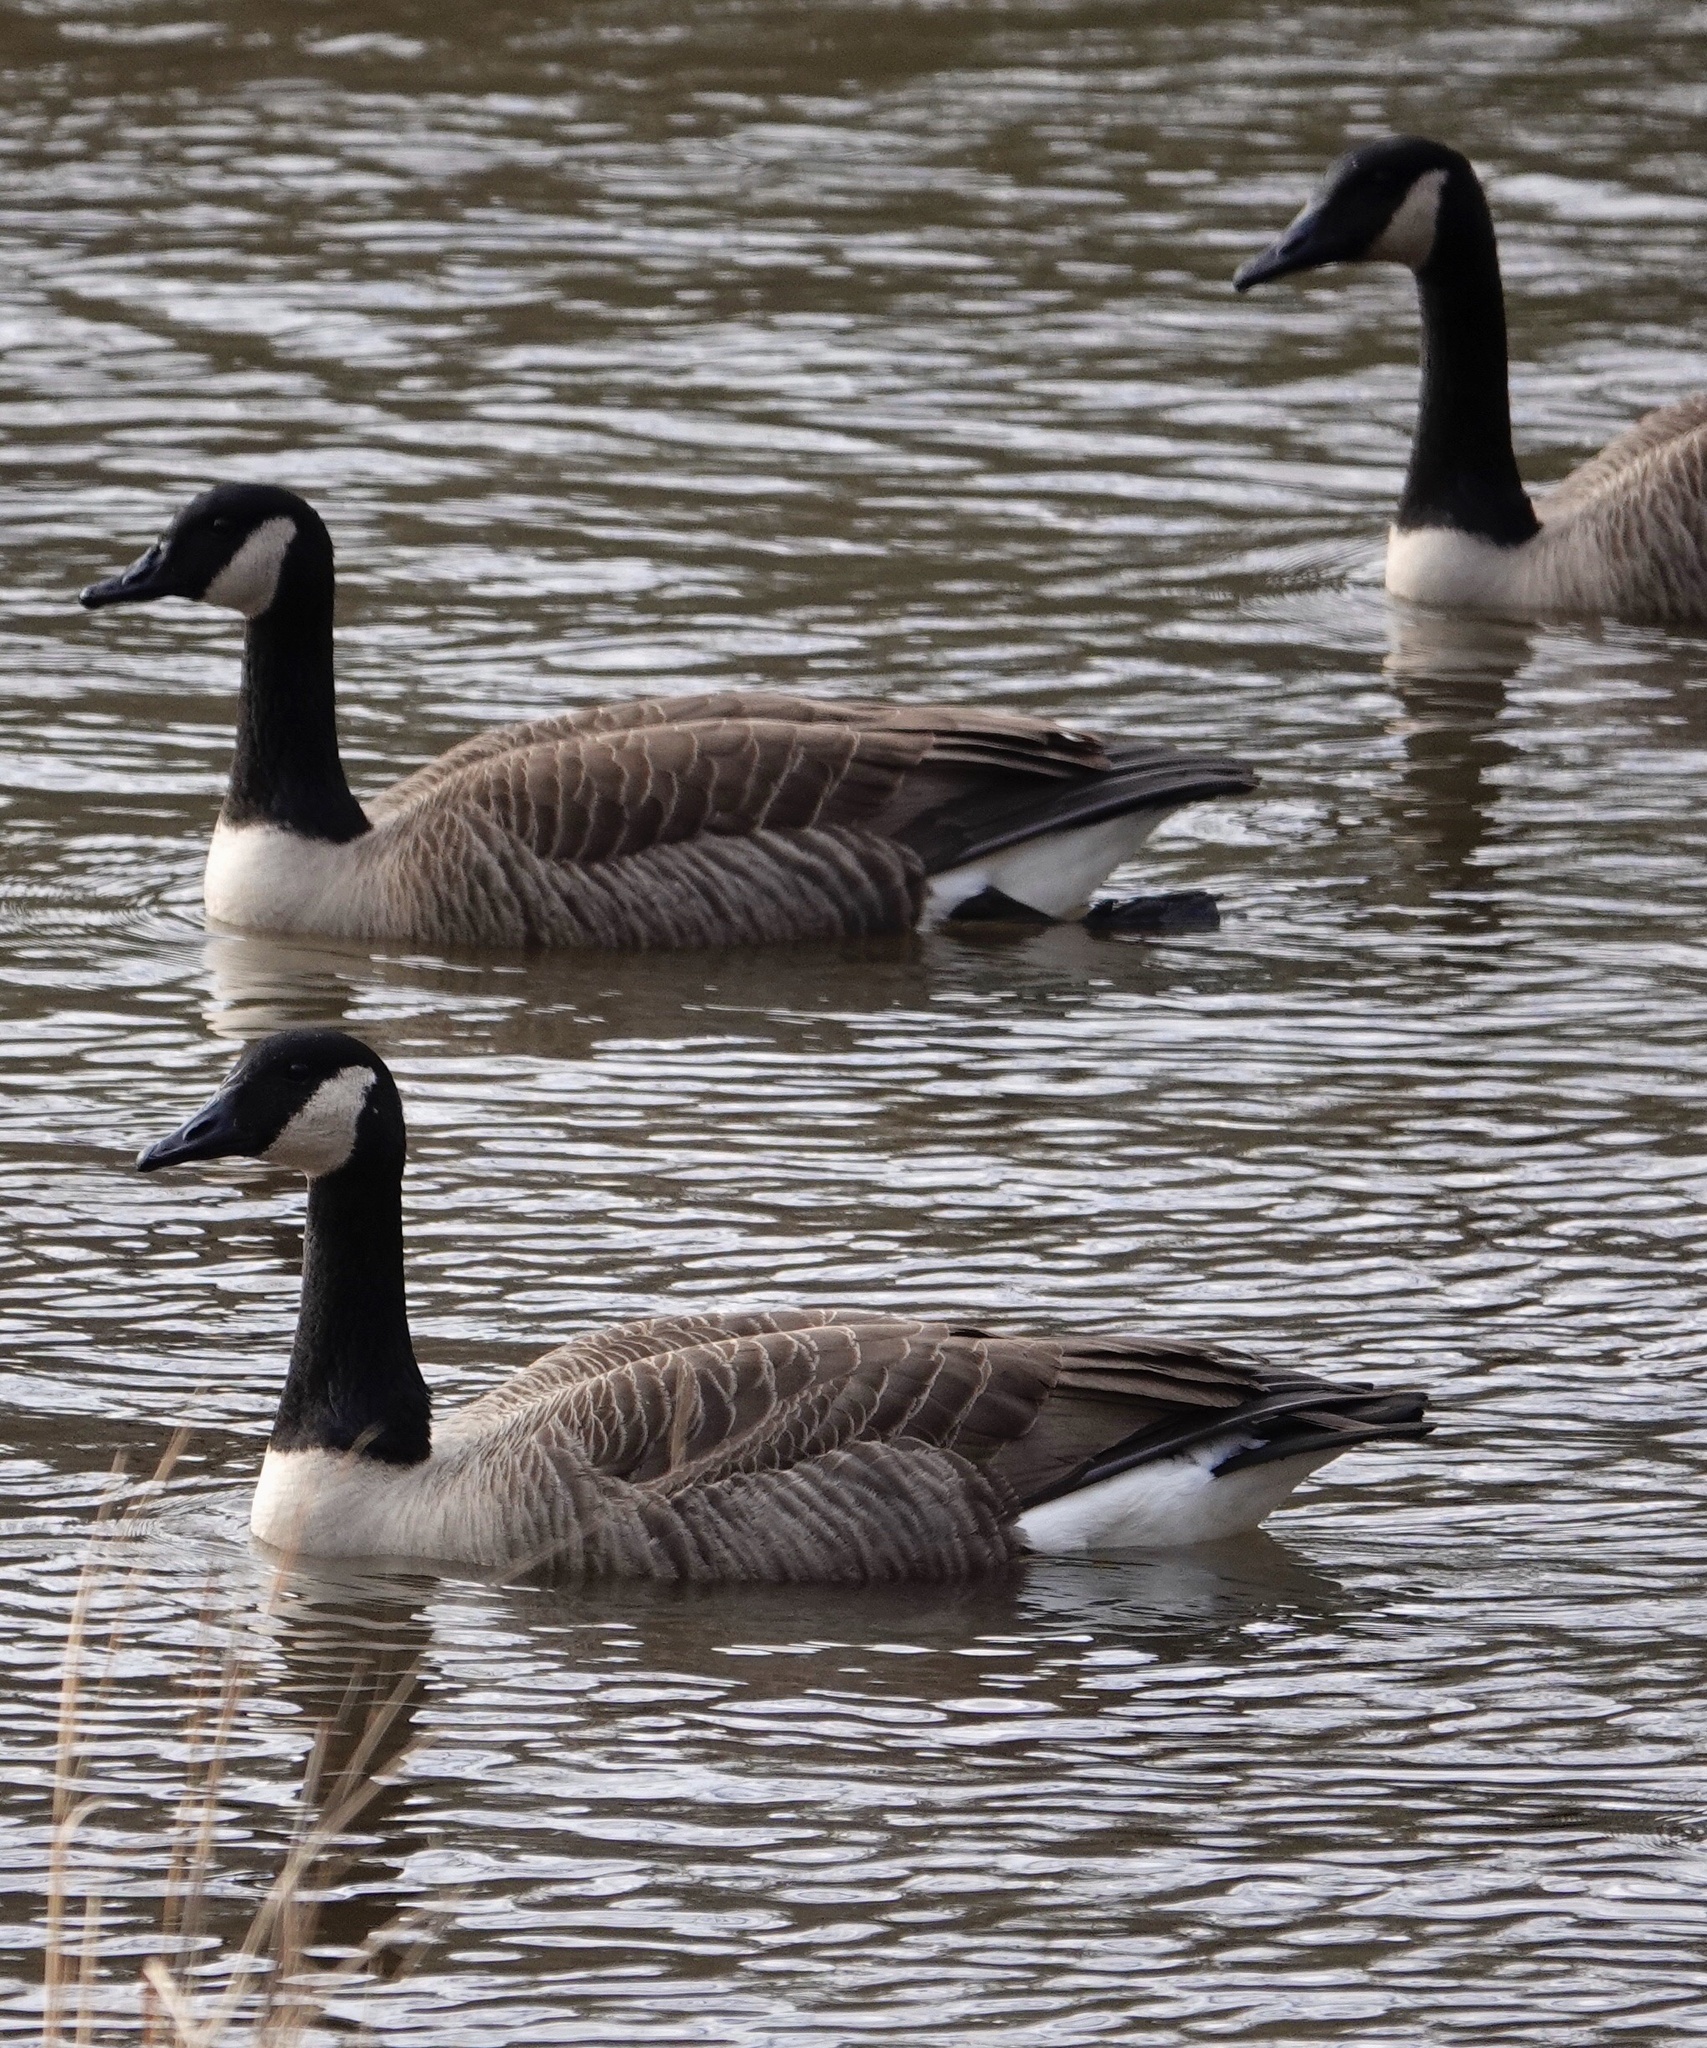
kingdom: Animalia
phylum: Chordata
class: Aves
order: Anseriformes
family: Anatidae
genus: Branta
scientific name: Branta canadensis
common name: Canada goose
